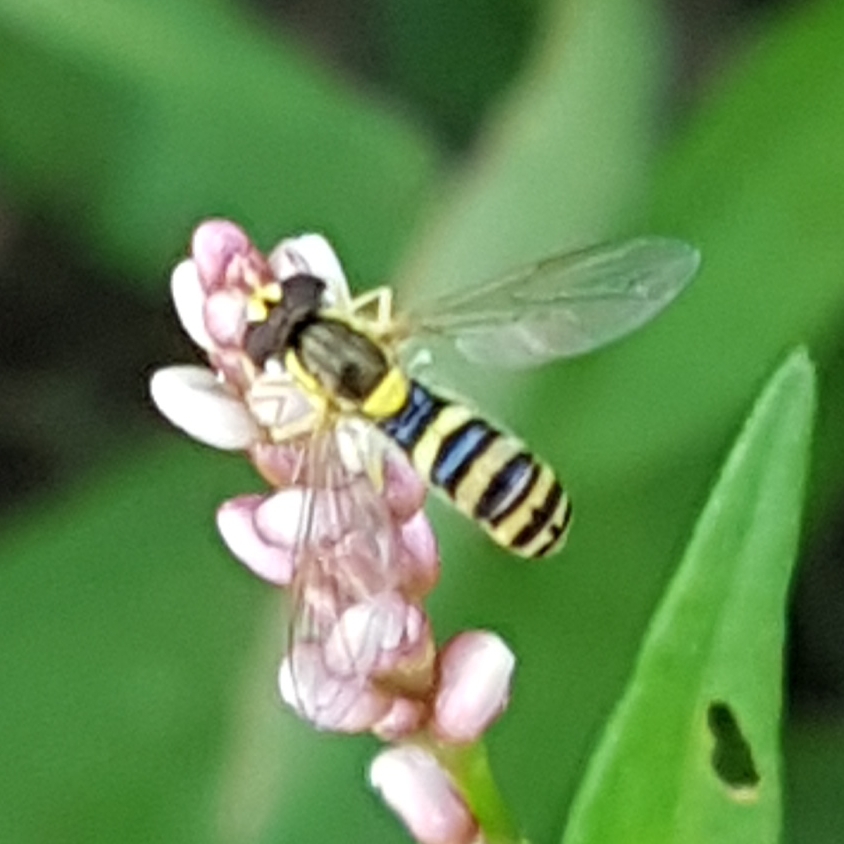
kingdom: Animalia
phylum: Arthropoda
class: Insecta
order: Diptera
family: Syrphidae
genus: Sphaerophoria
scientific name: Sphaerophoria
